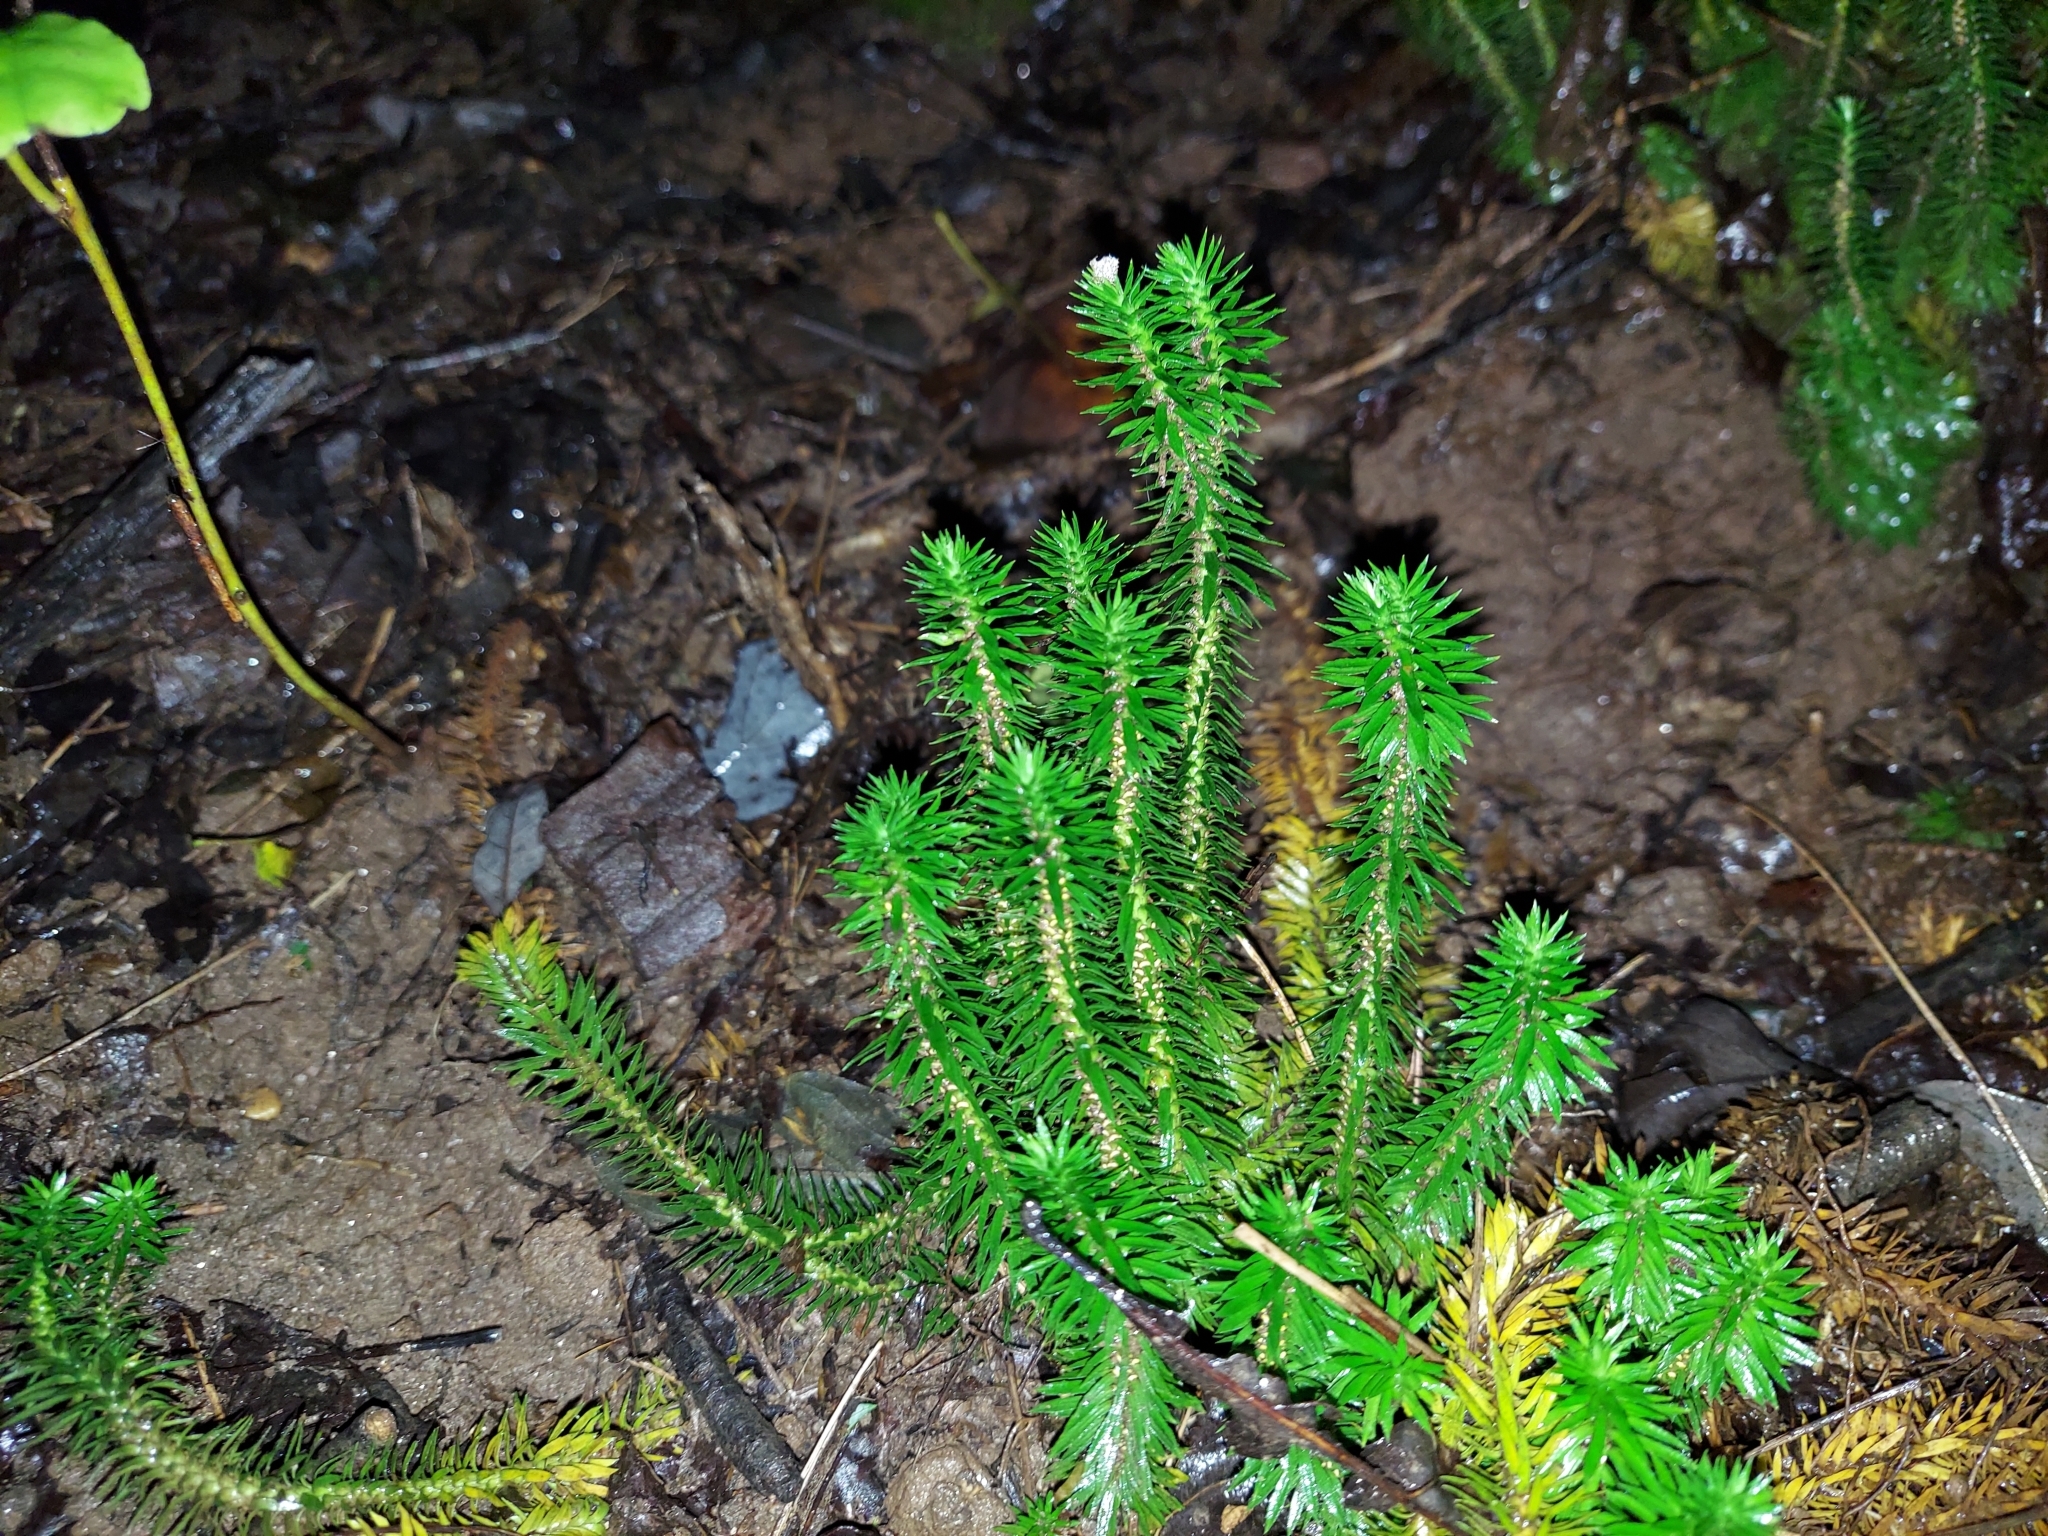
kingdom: Plantae
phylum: Tracheophyta
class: Lycopodiopsida
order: Lycopodiales
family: Lycopodiaceae
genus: Huperzia
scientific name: Huperzia lucidula
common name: Shining clubmoss
